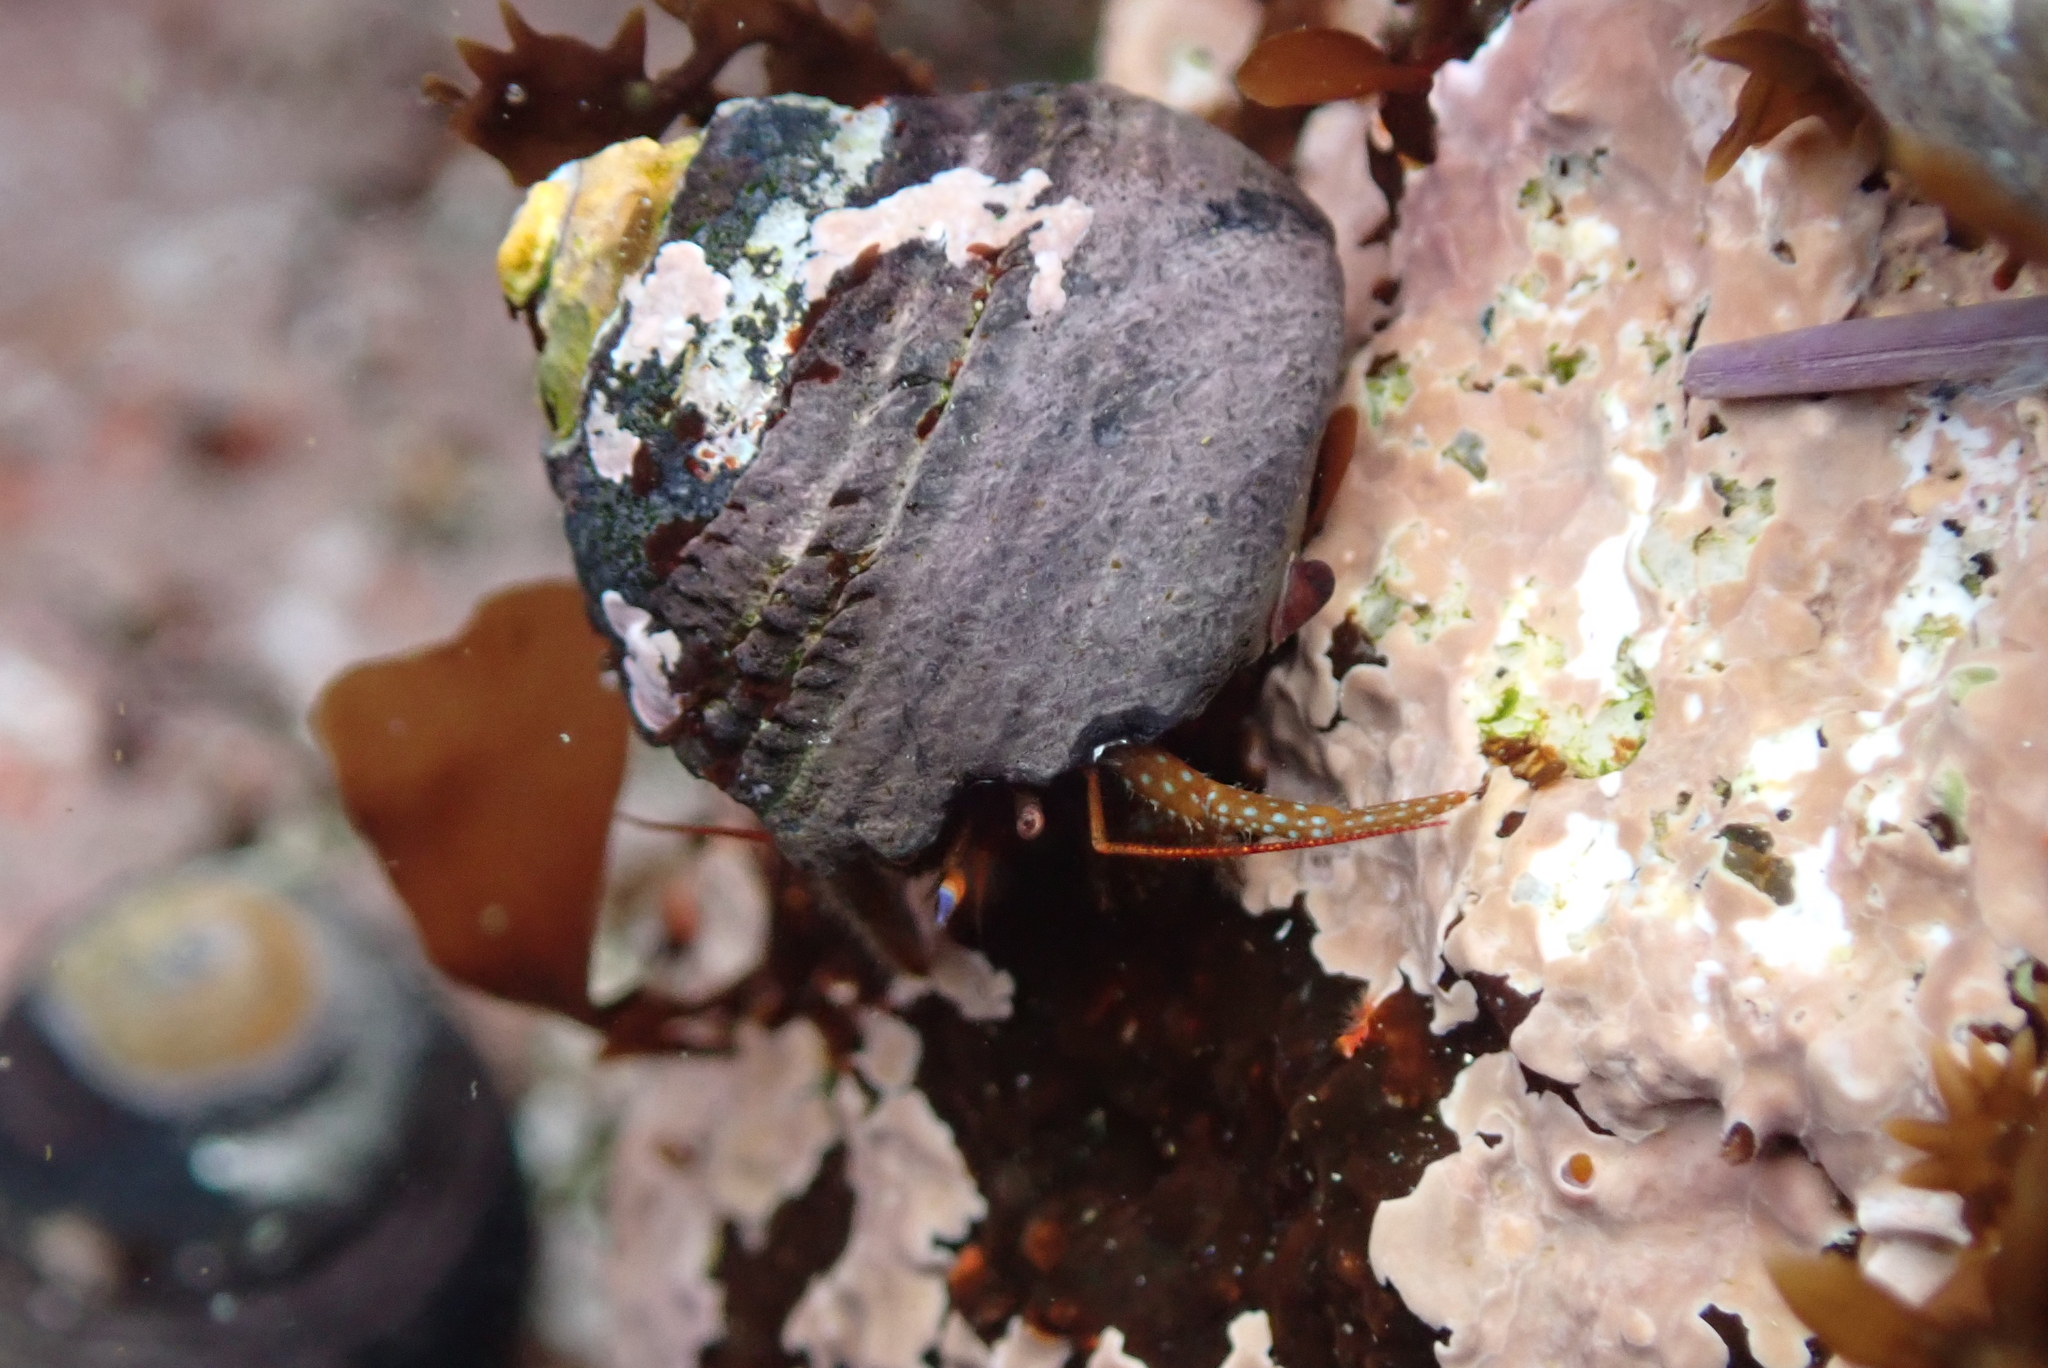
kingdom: Animalia
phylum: Arthropoda
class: Malacostraca
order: Decapoda
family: Paguridae
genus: Pagurus
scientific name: Pagurus granosimanus
